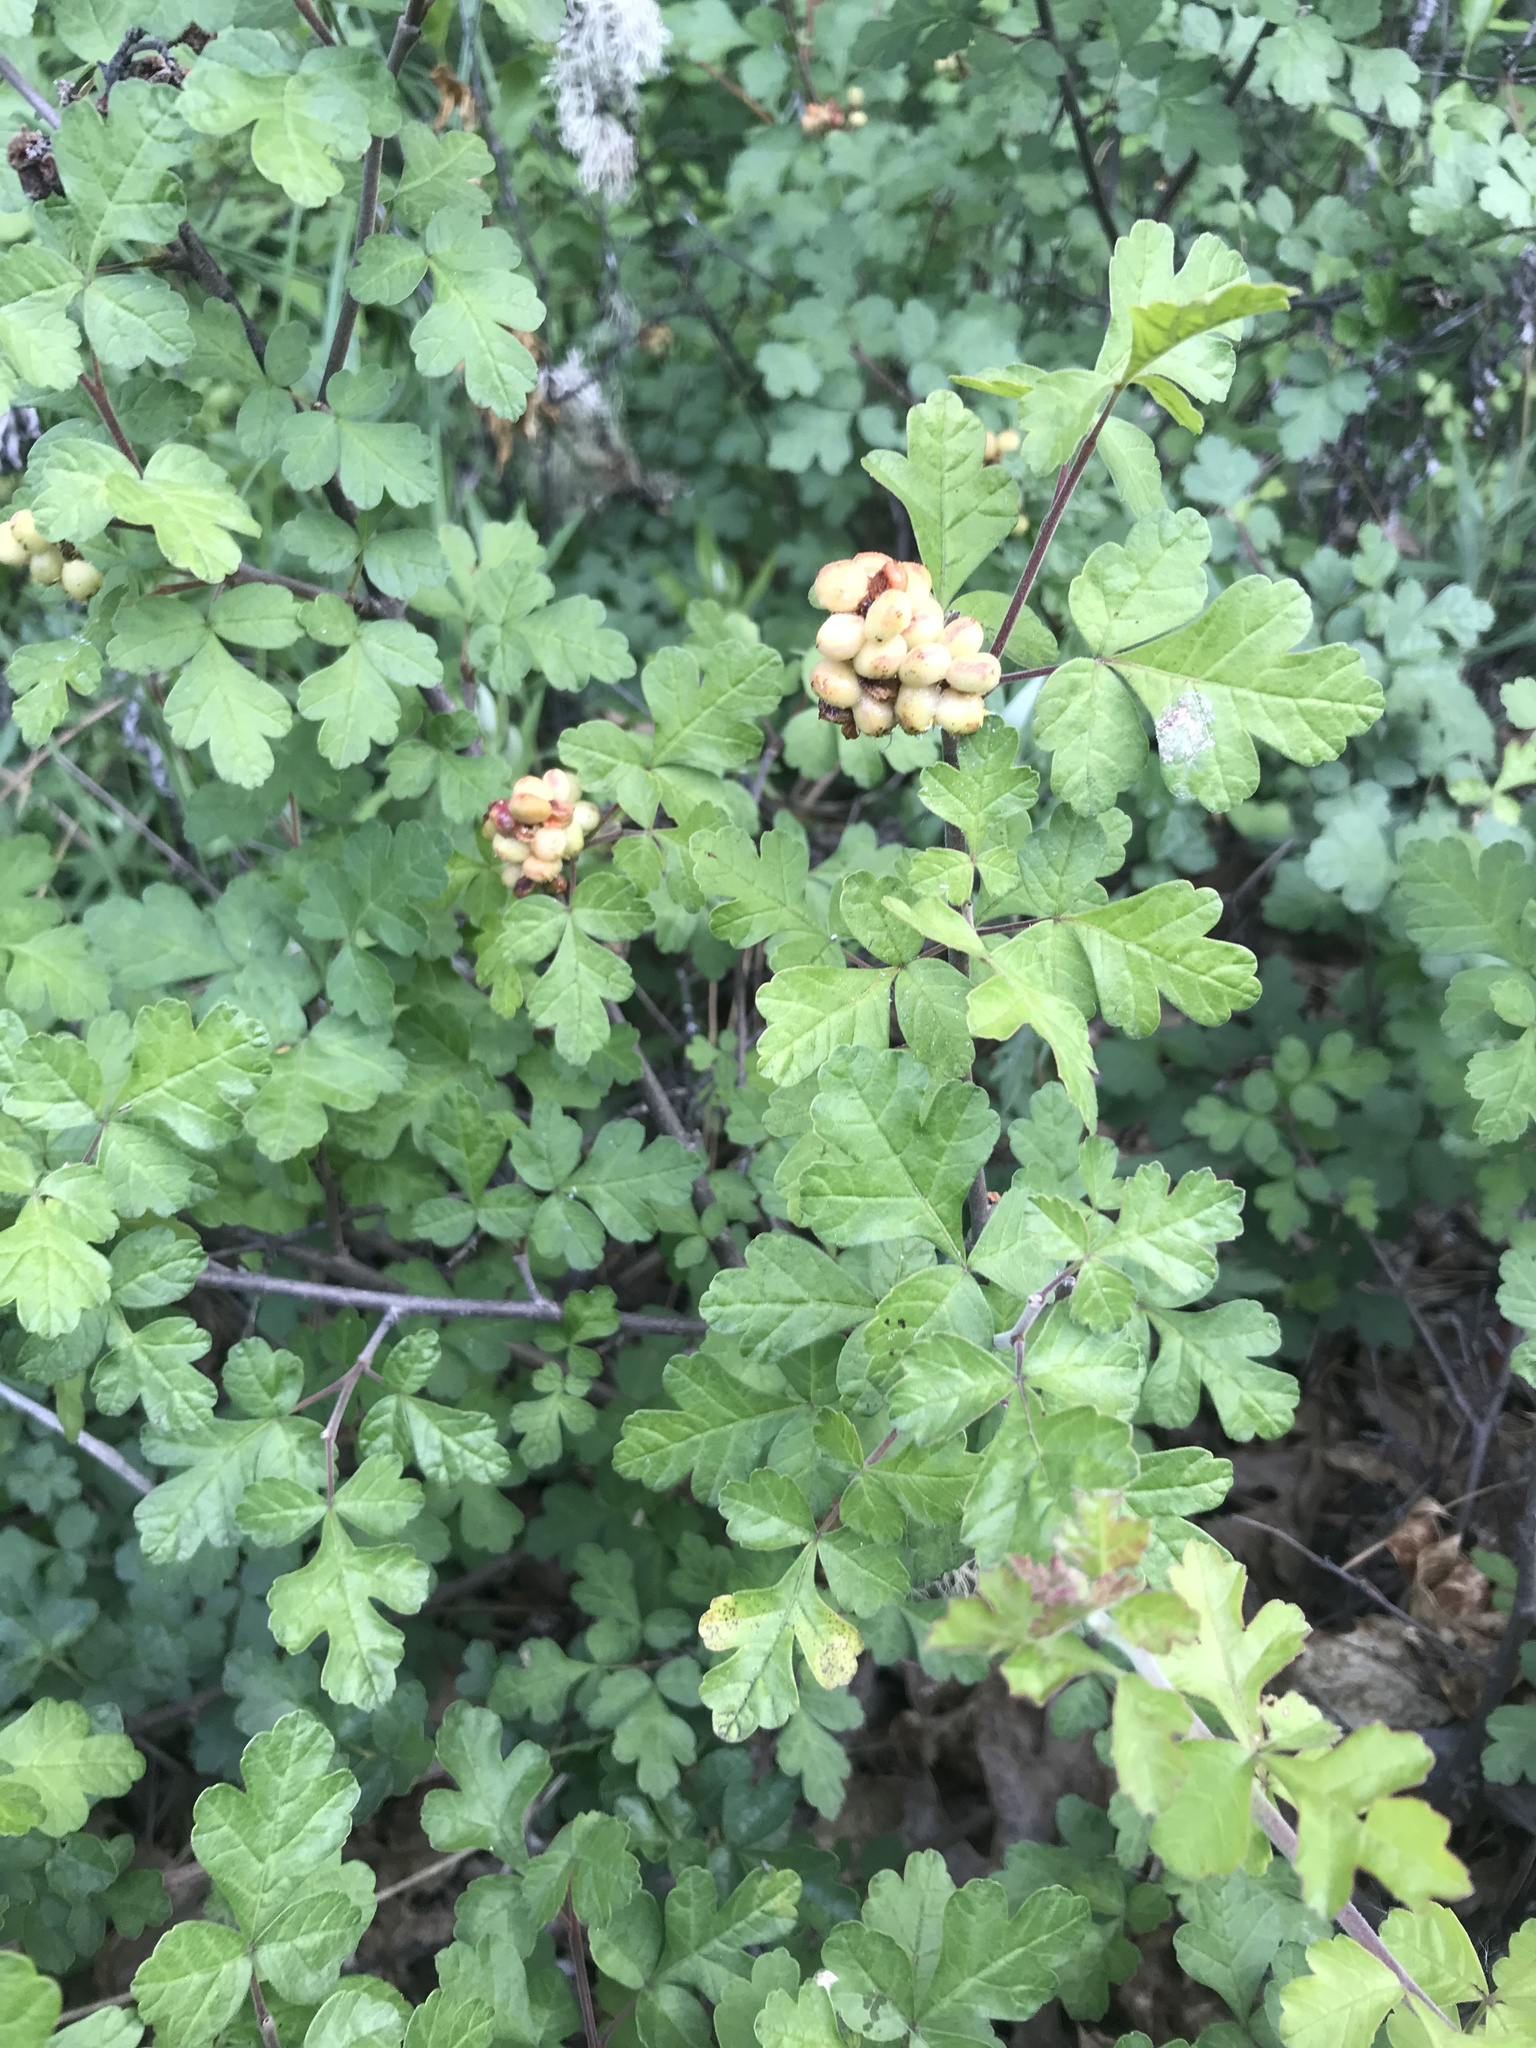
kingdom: Plantae
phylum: Tracheophyta
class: Magnoliopsida
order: Sapindales
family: Anacardiaceae
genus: Rhus
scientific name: Rhus aromatica
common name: Aromatic sumac
